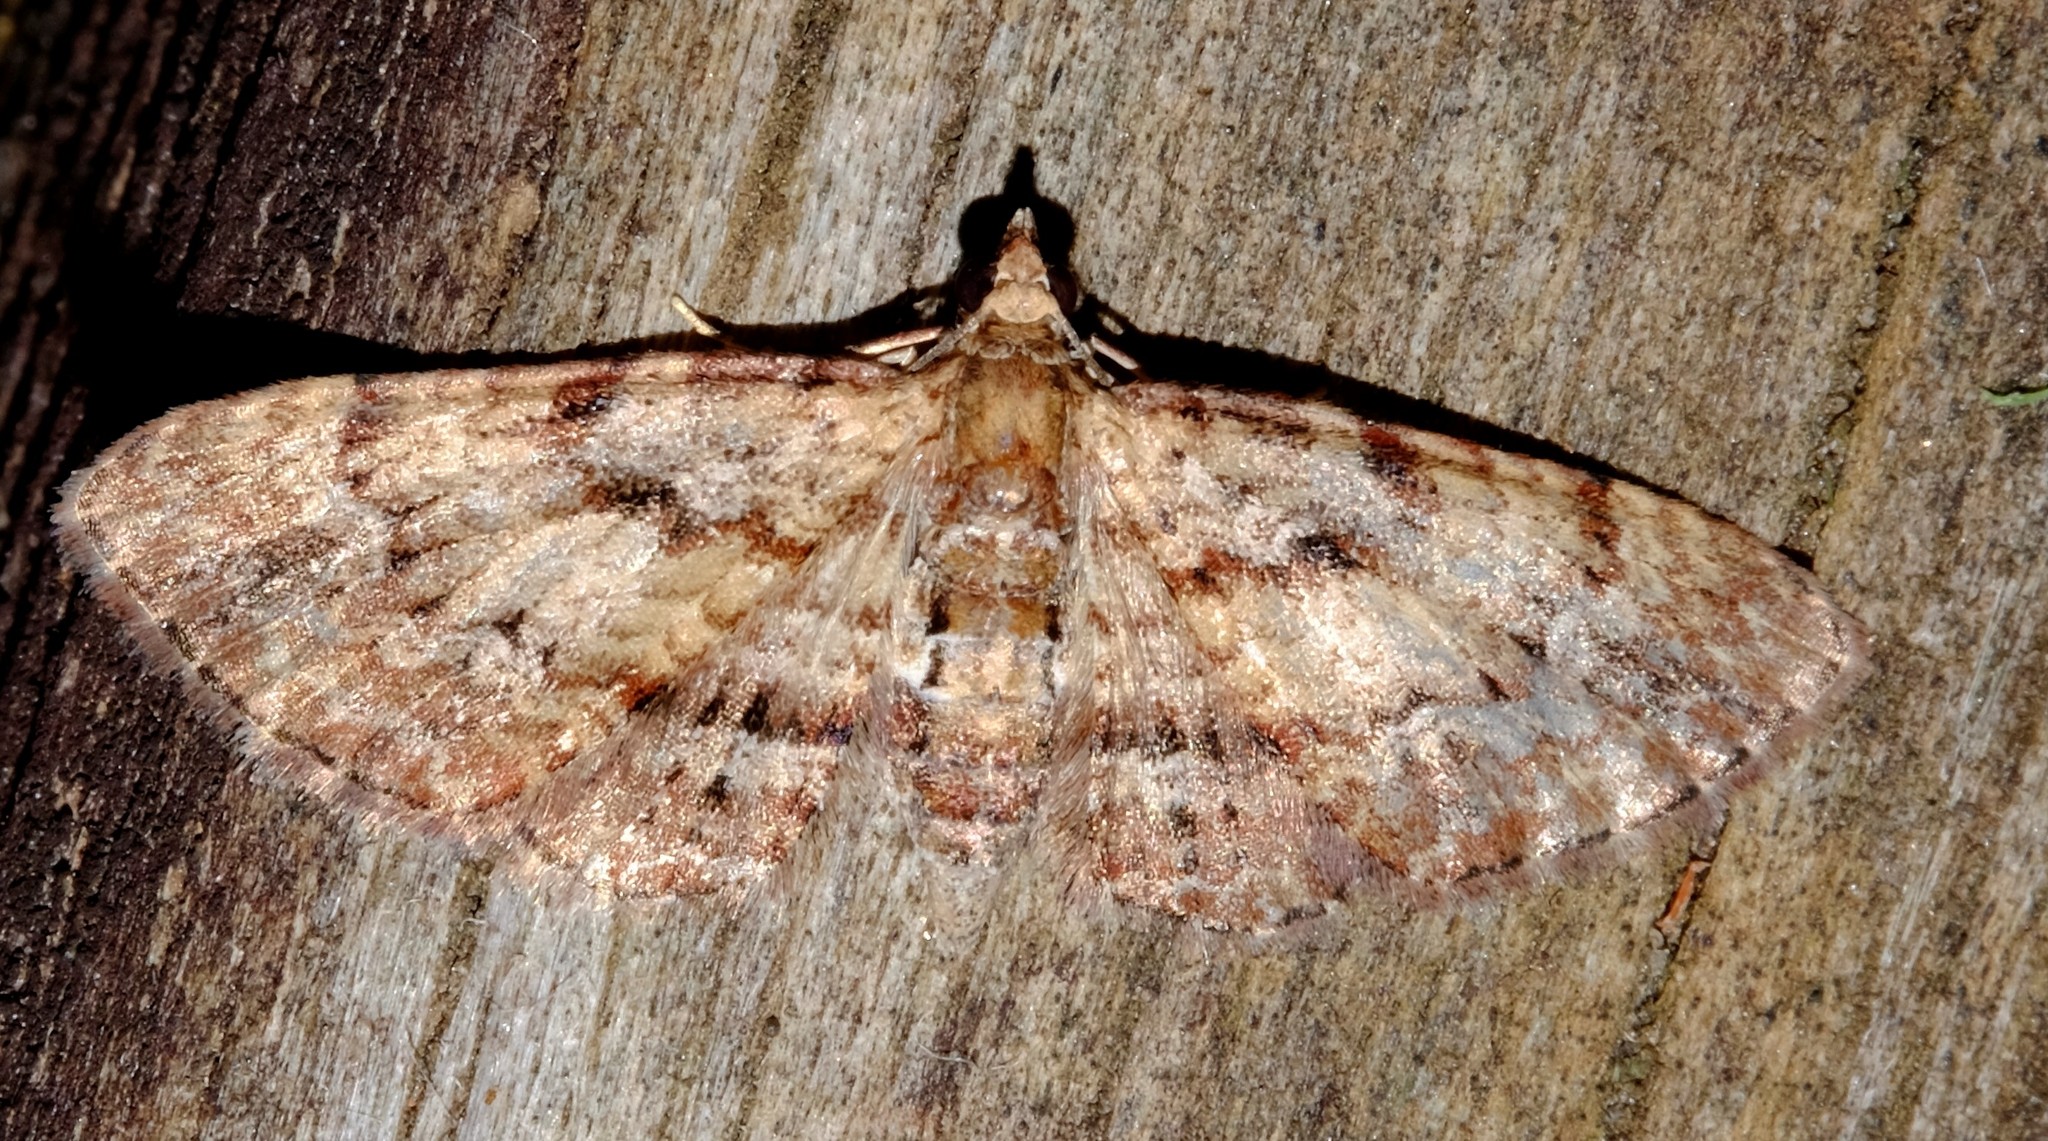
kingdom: Animalia
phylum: Arthropoda
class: Insecta
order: Lepidoptera
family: Geometridae
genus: Chloroclystis
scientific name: Chloroclystis approximata
